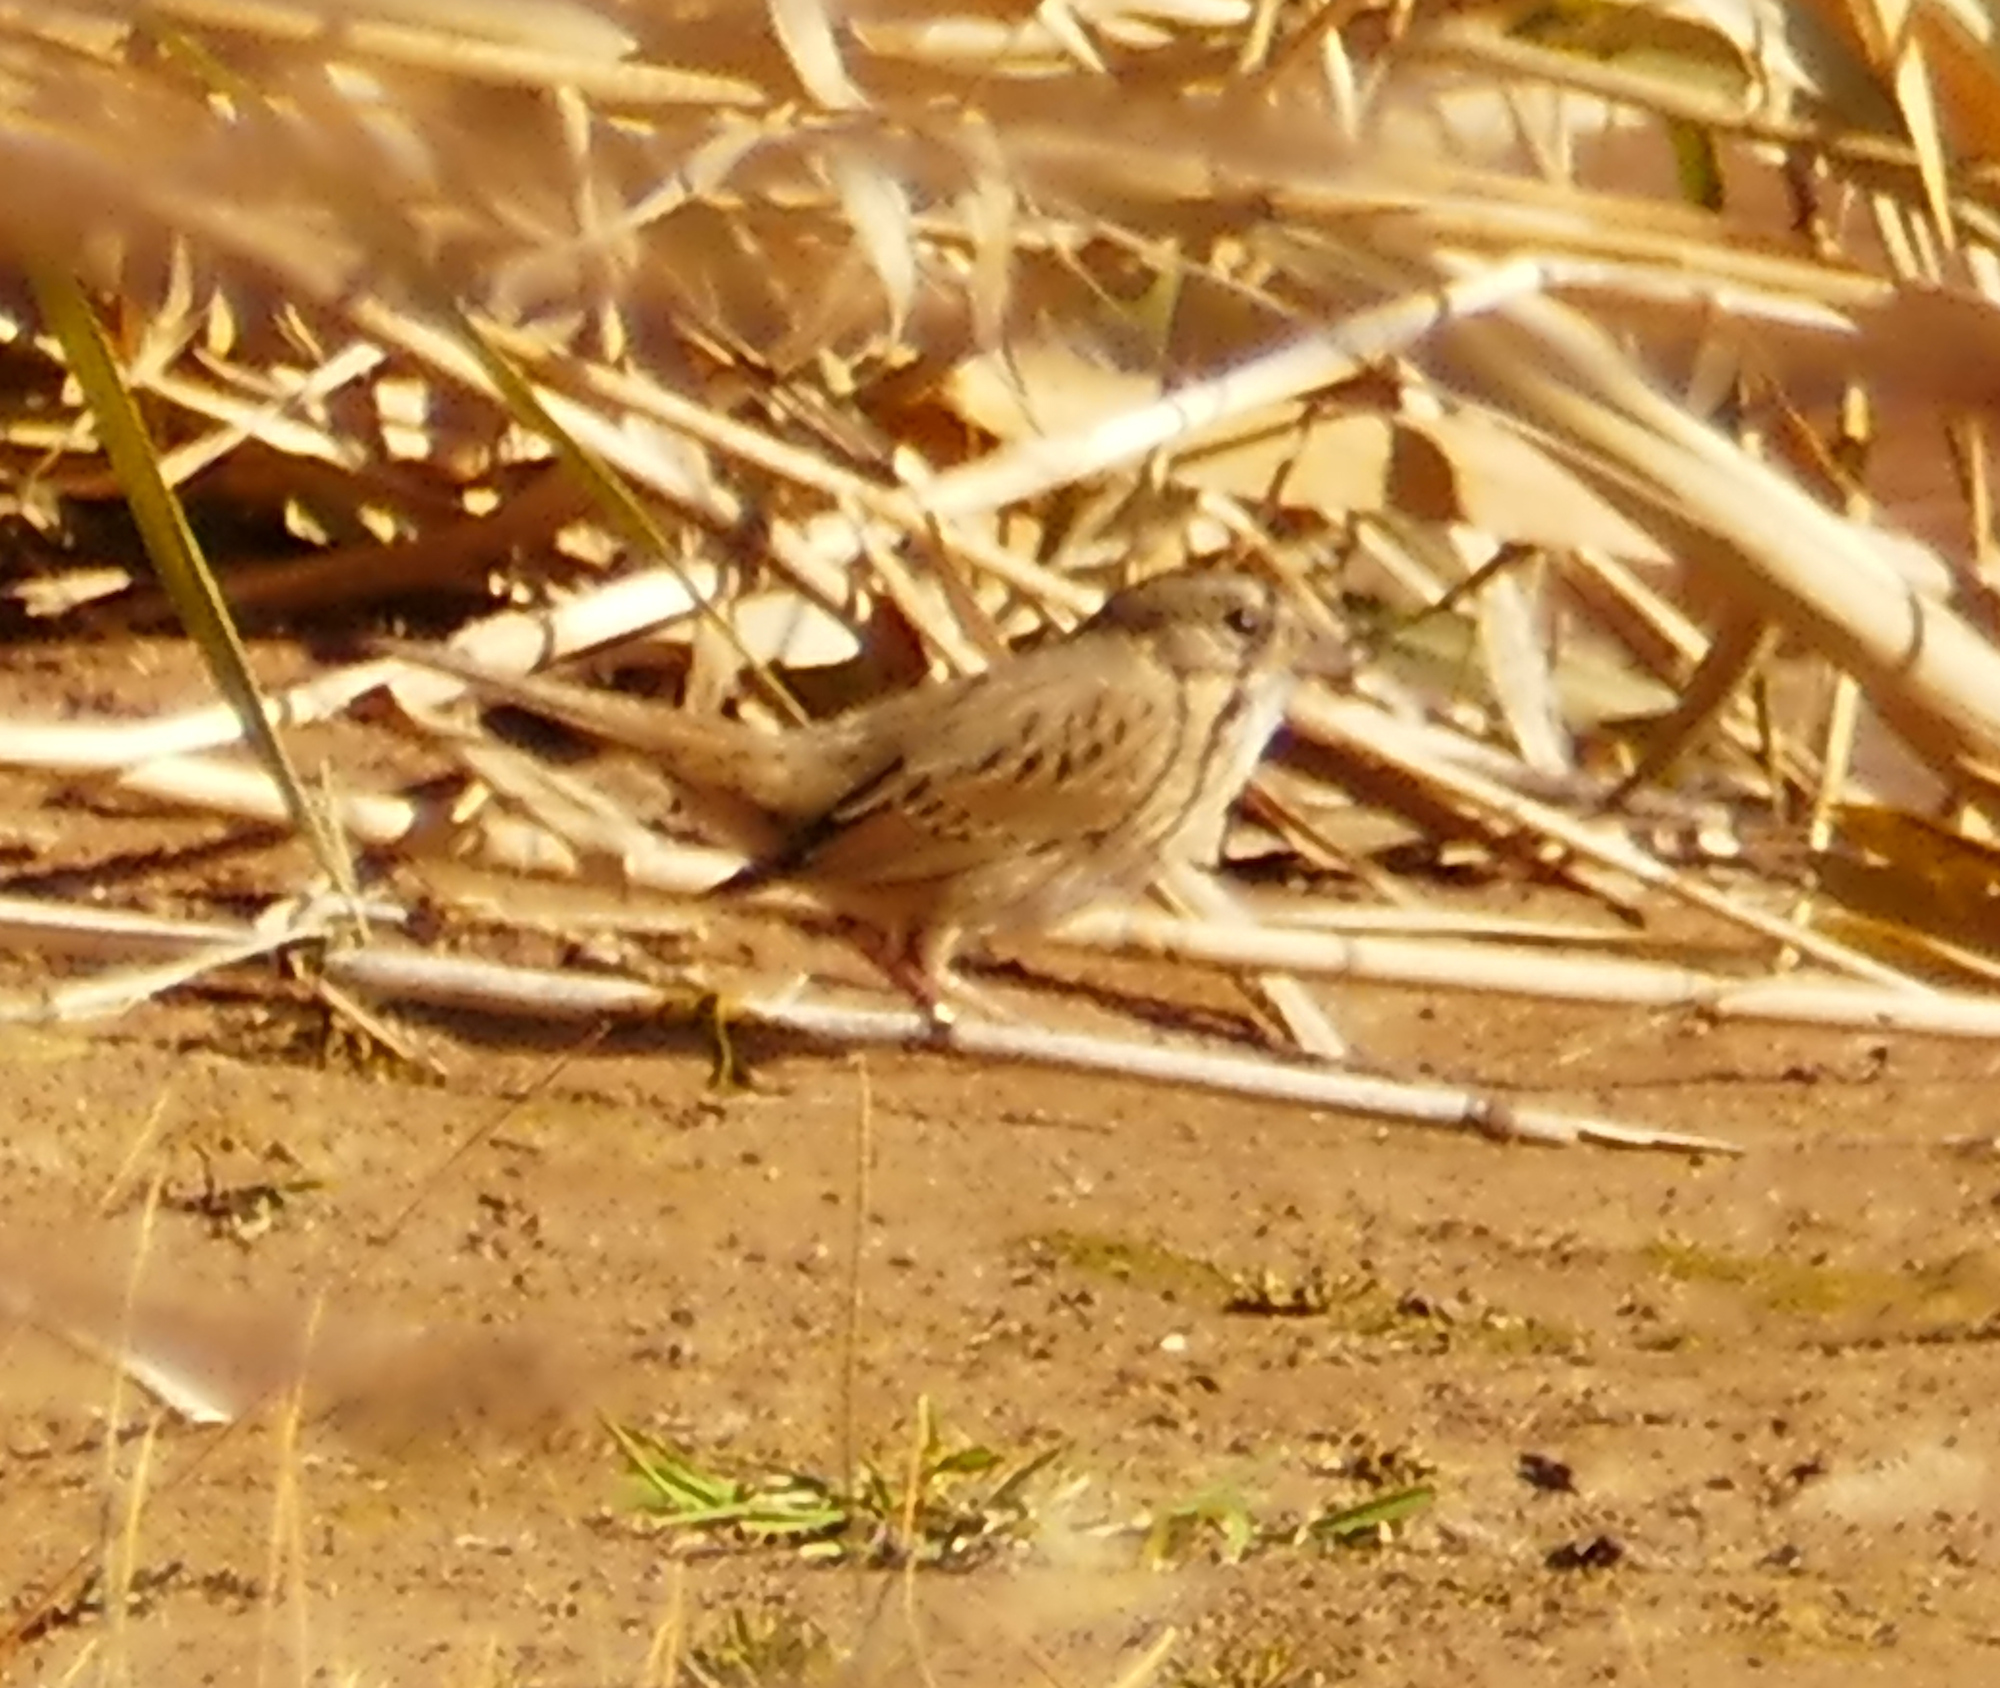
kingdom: Animalia
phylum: Chordata
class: Aves
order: Passeriformes
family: Passerellidae
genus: Melospiza
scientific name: Melospiza lincolnii
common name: Lincoln's sparrow
